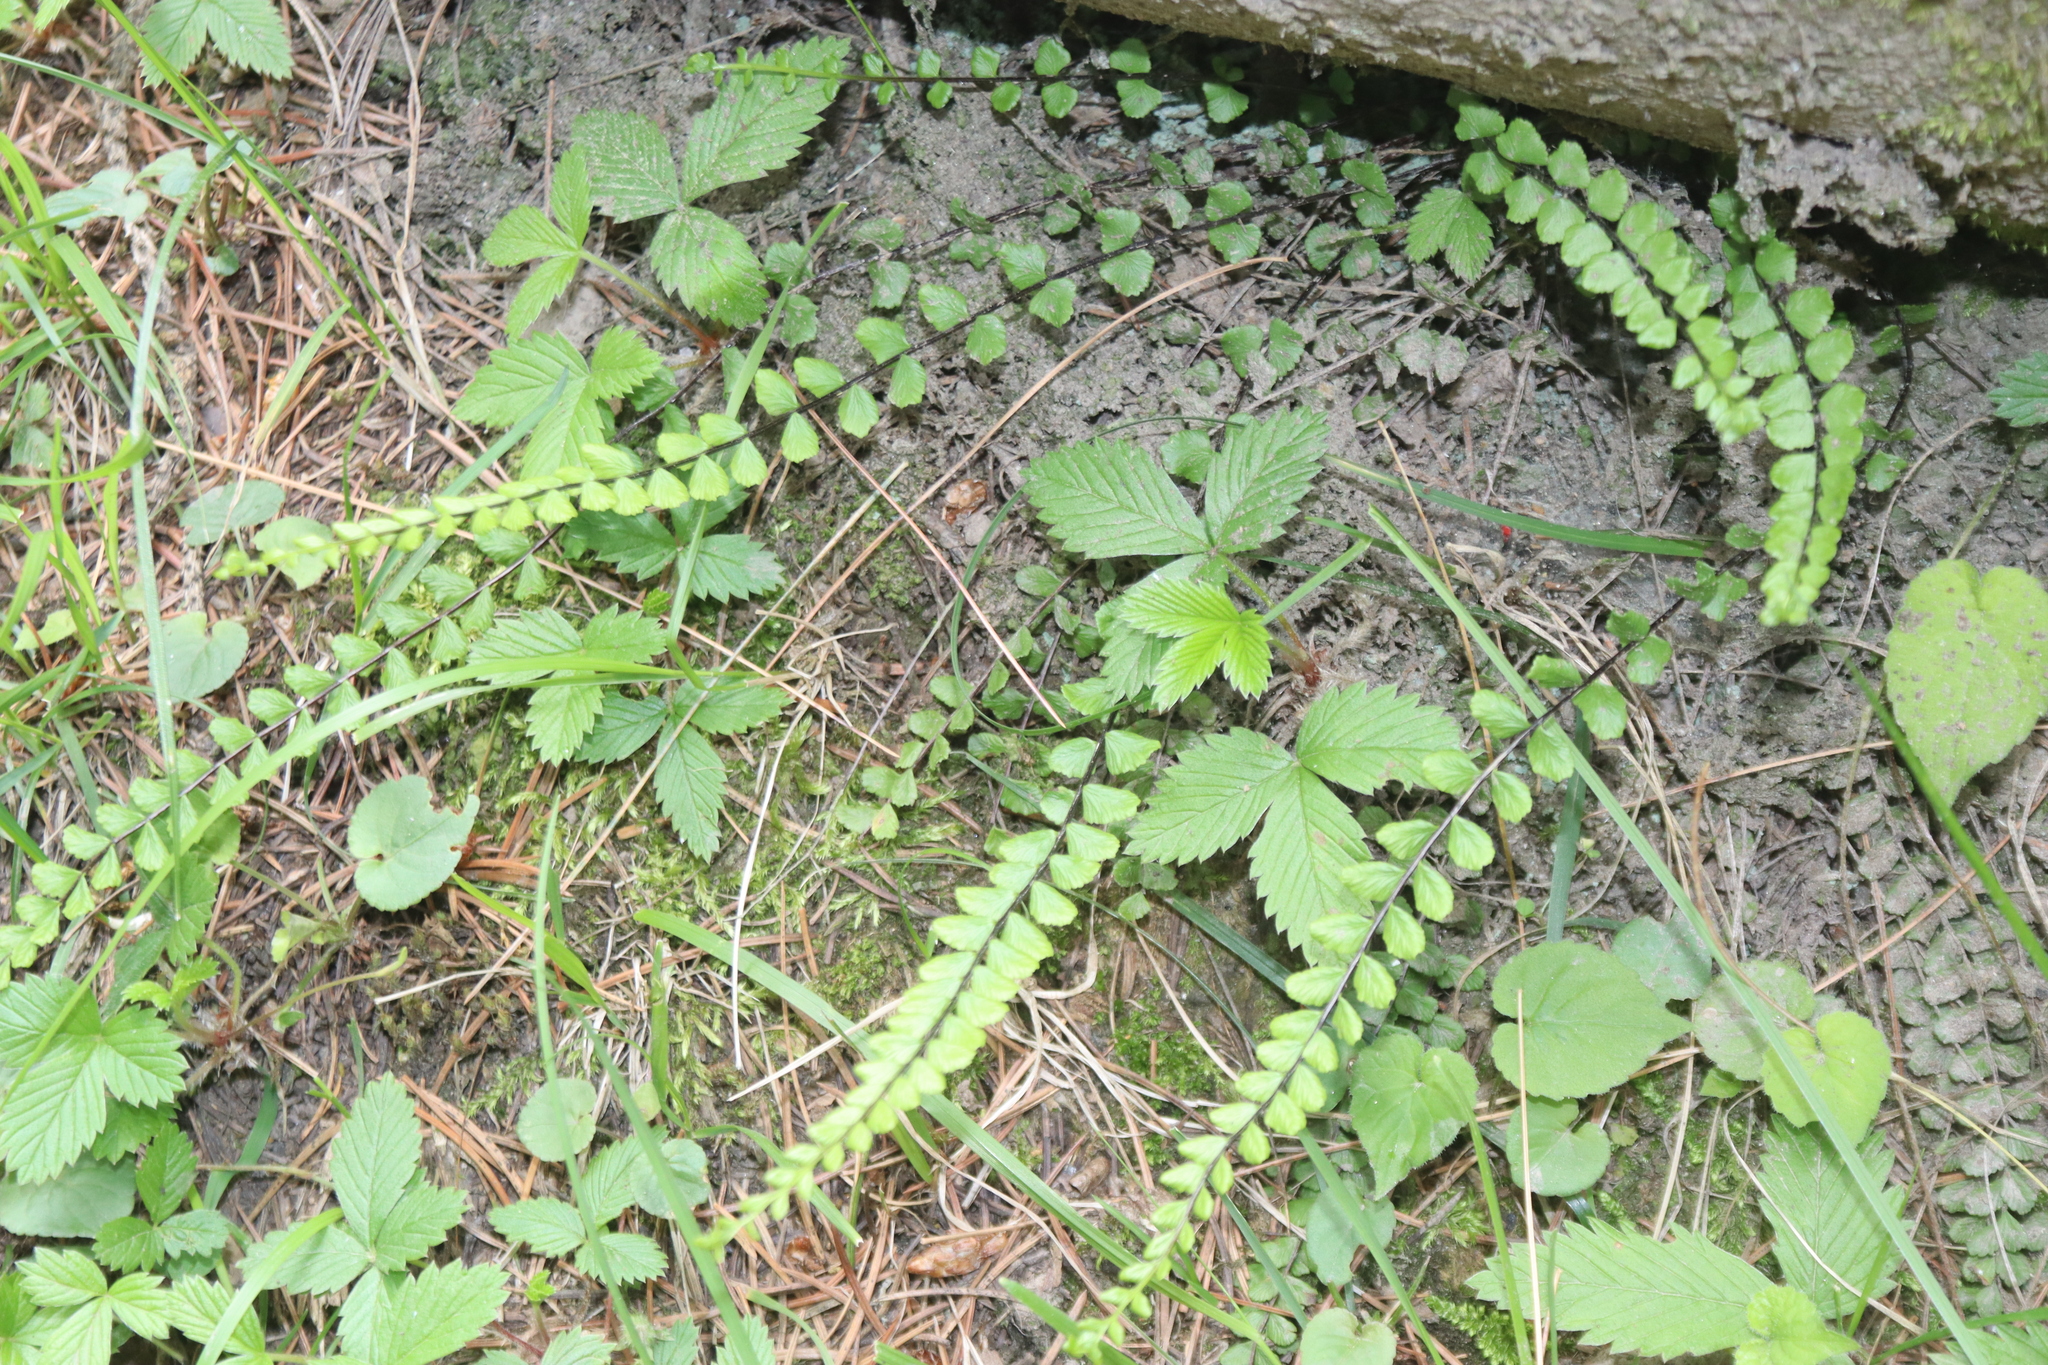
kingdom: Plantae
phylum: Tracheophyta
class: Polypodiopsida
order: Polypodiales
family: Aspleniaceae
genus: Asplenium
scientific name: Asplenium trichomanes
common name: Maidenhair spleenwort
